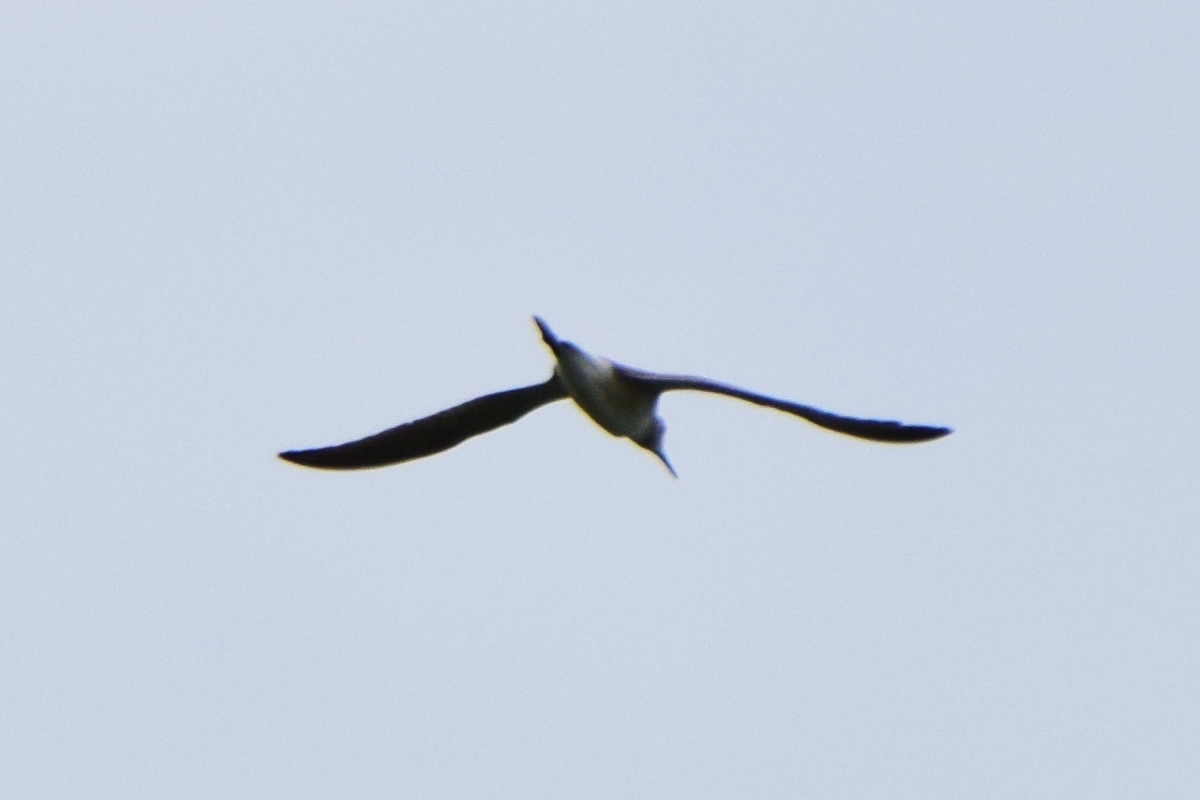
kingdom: Animalia
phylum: Chordata
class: Aves
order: Charadriiformes
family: Scolopacidae
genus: Tringa
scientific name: Tringa nebularia
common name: Common greenshank
